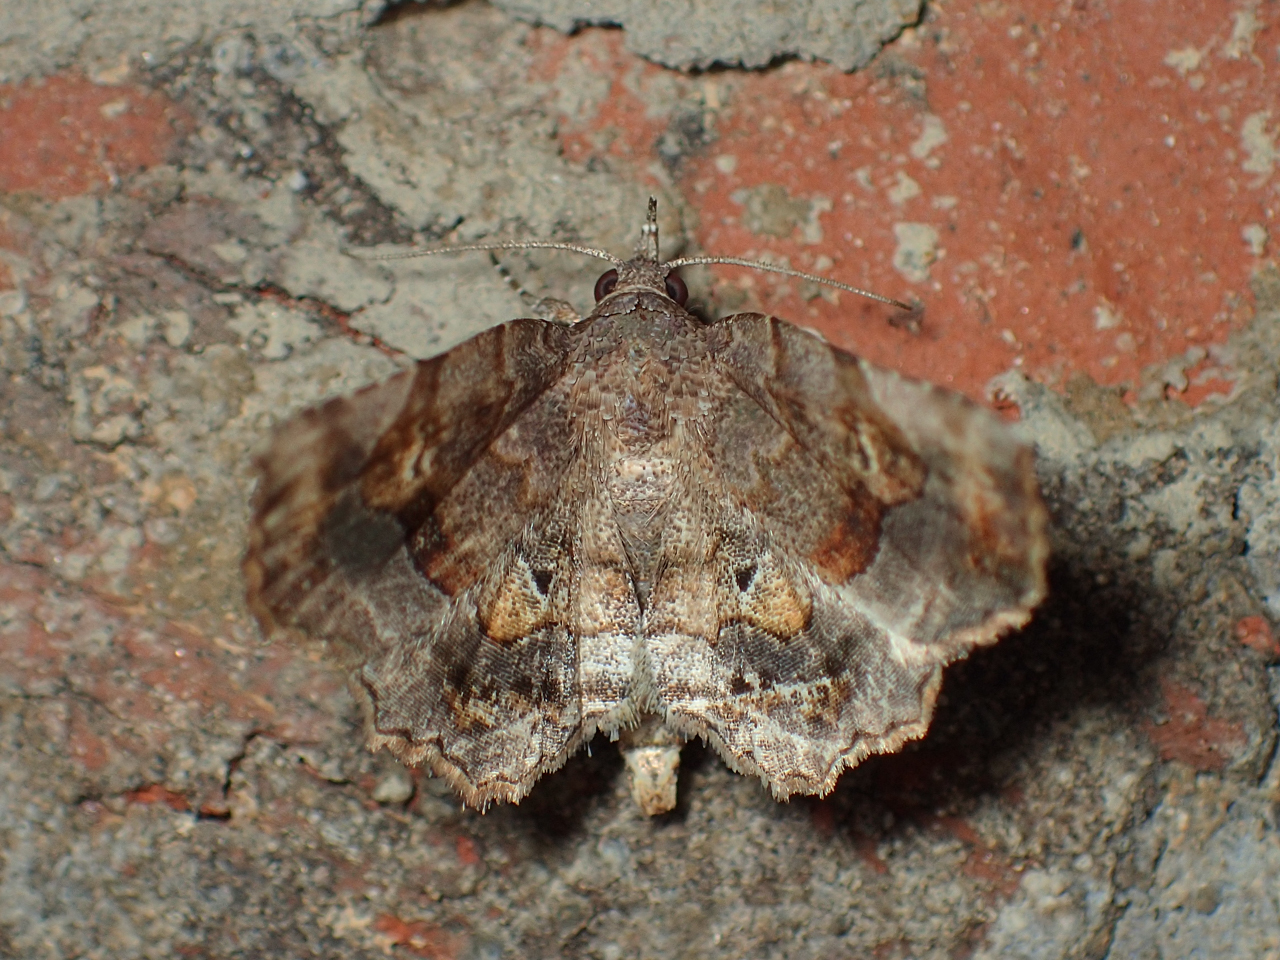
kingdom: Animalia
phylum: Arthropoda
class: Insecta
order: Lepidoptera
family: Erebidae
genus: Pangrapta
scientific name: Pangrapta decoralis
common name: Decorated owlet
